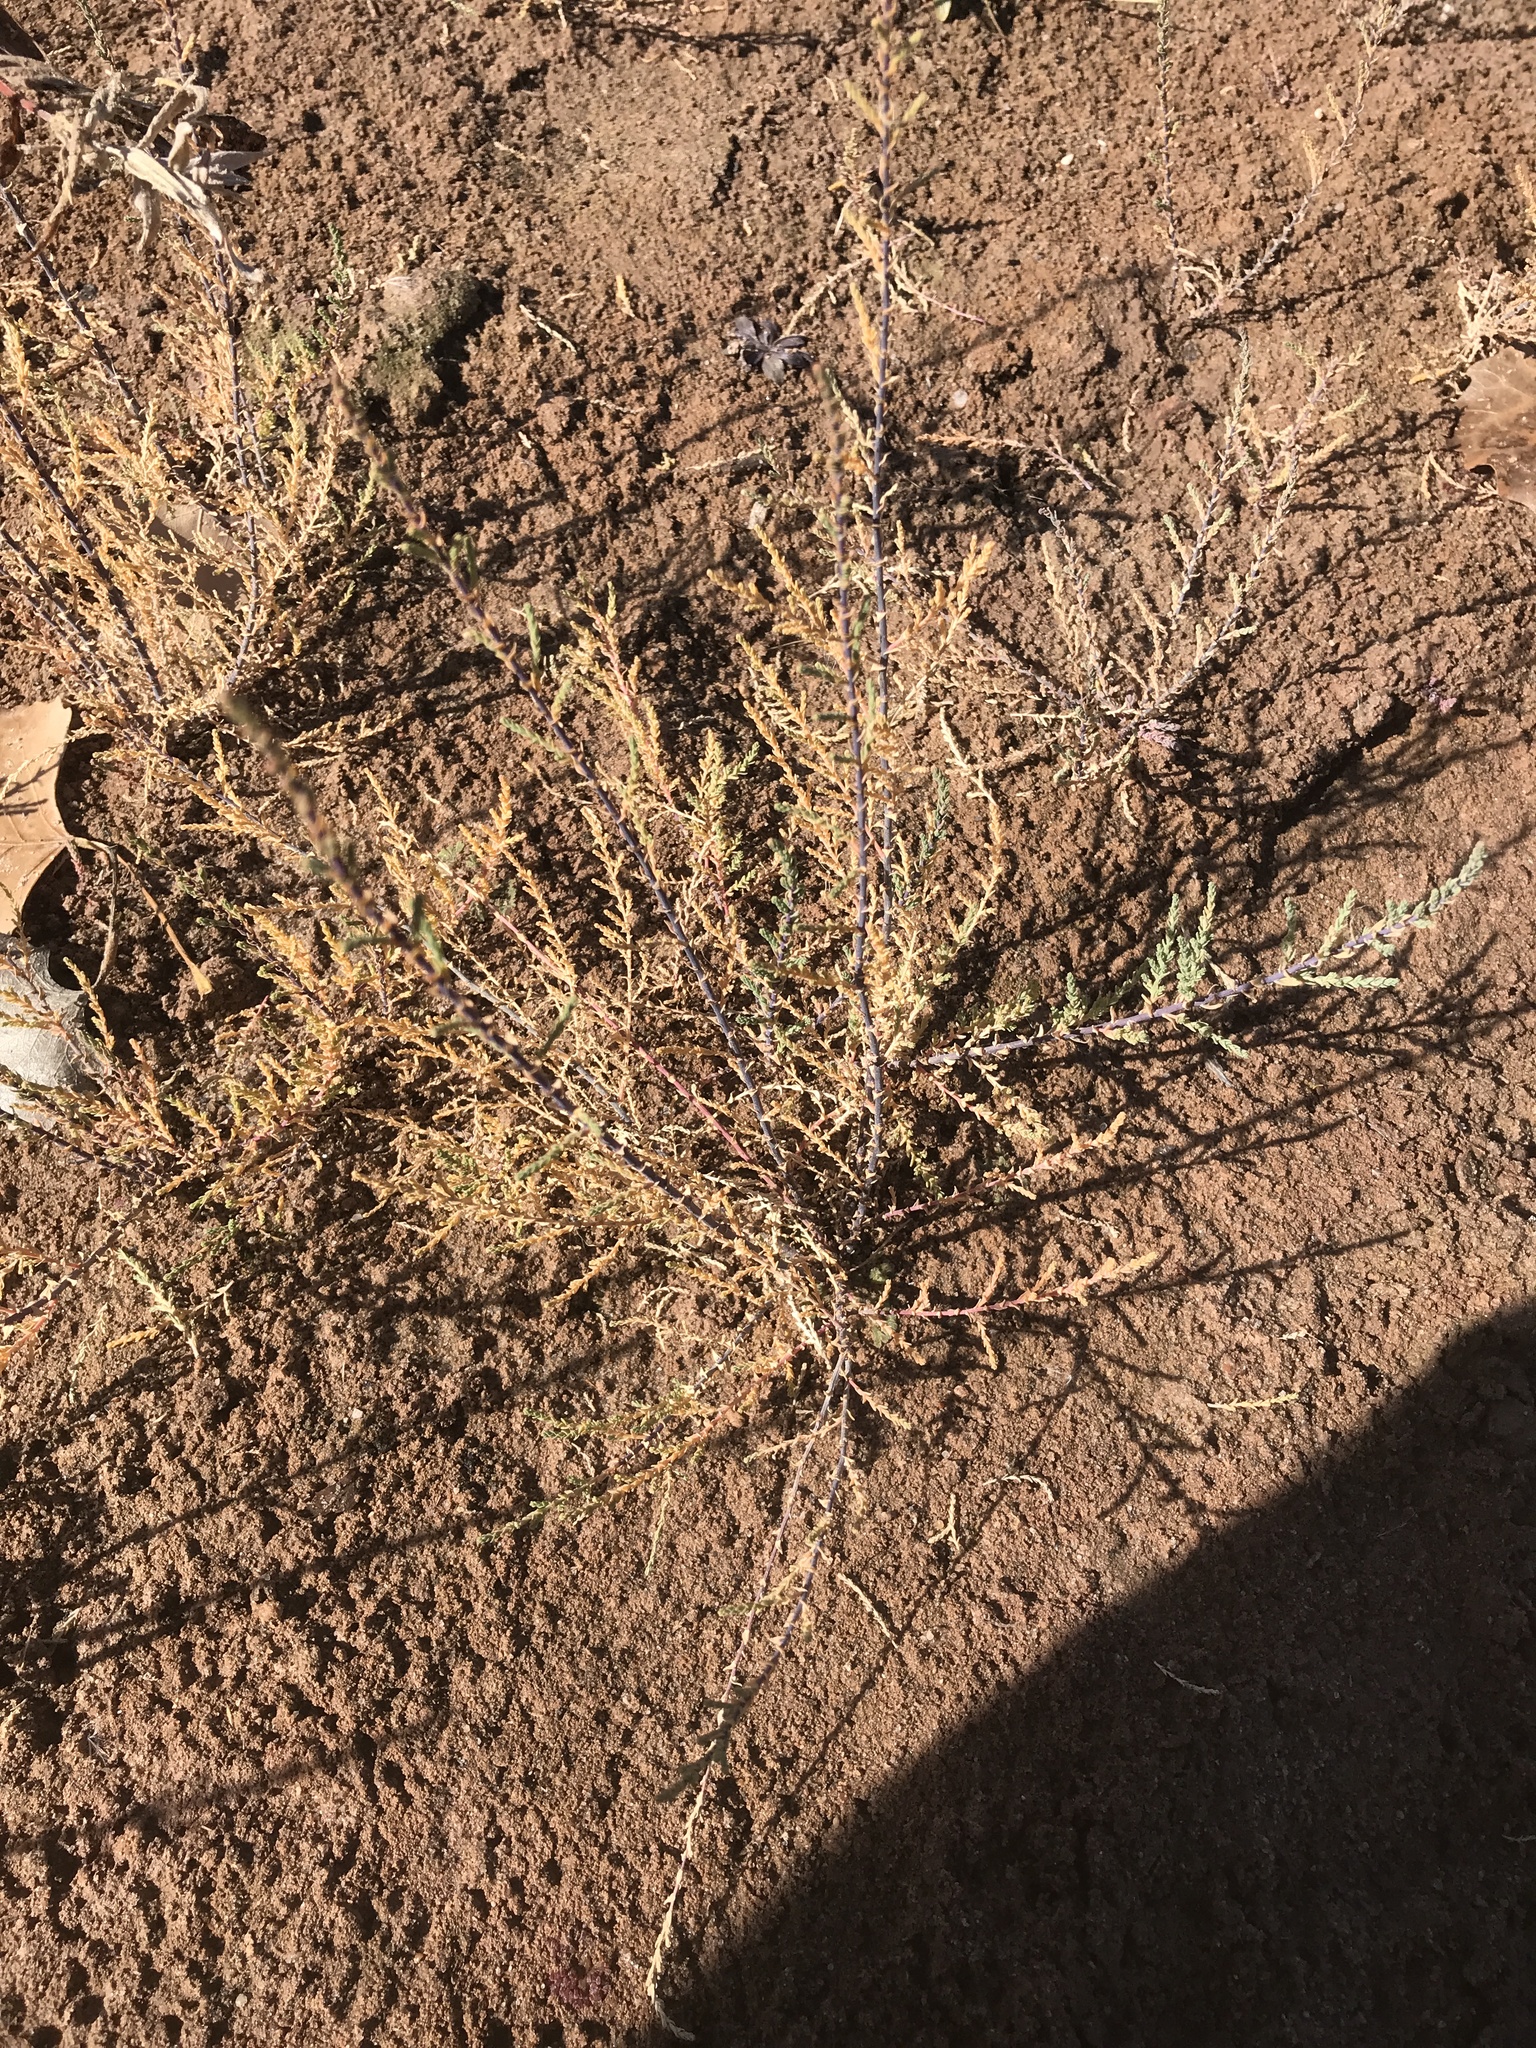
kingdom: Plantae
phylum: Tracheophyta
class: Magnoliopsida
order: Caryophyllales
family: Tamaricaceae
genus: Tamarix
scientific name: Tamarix
